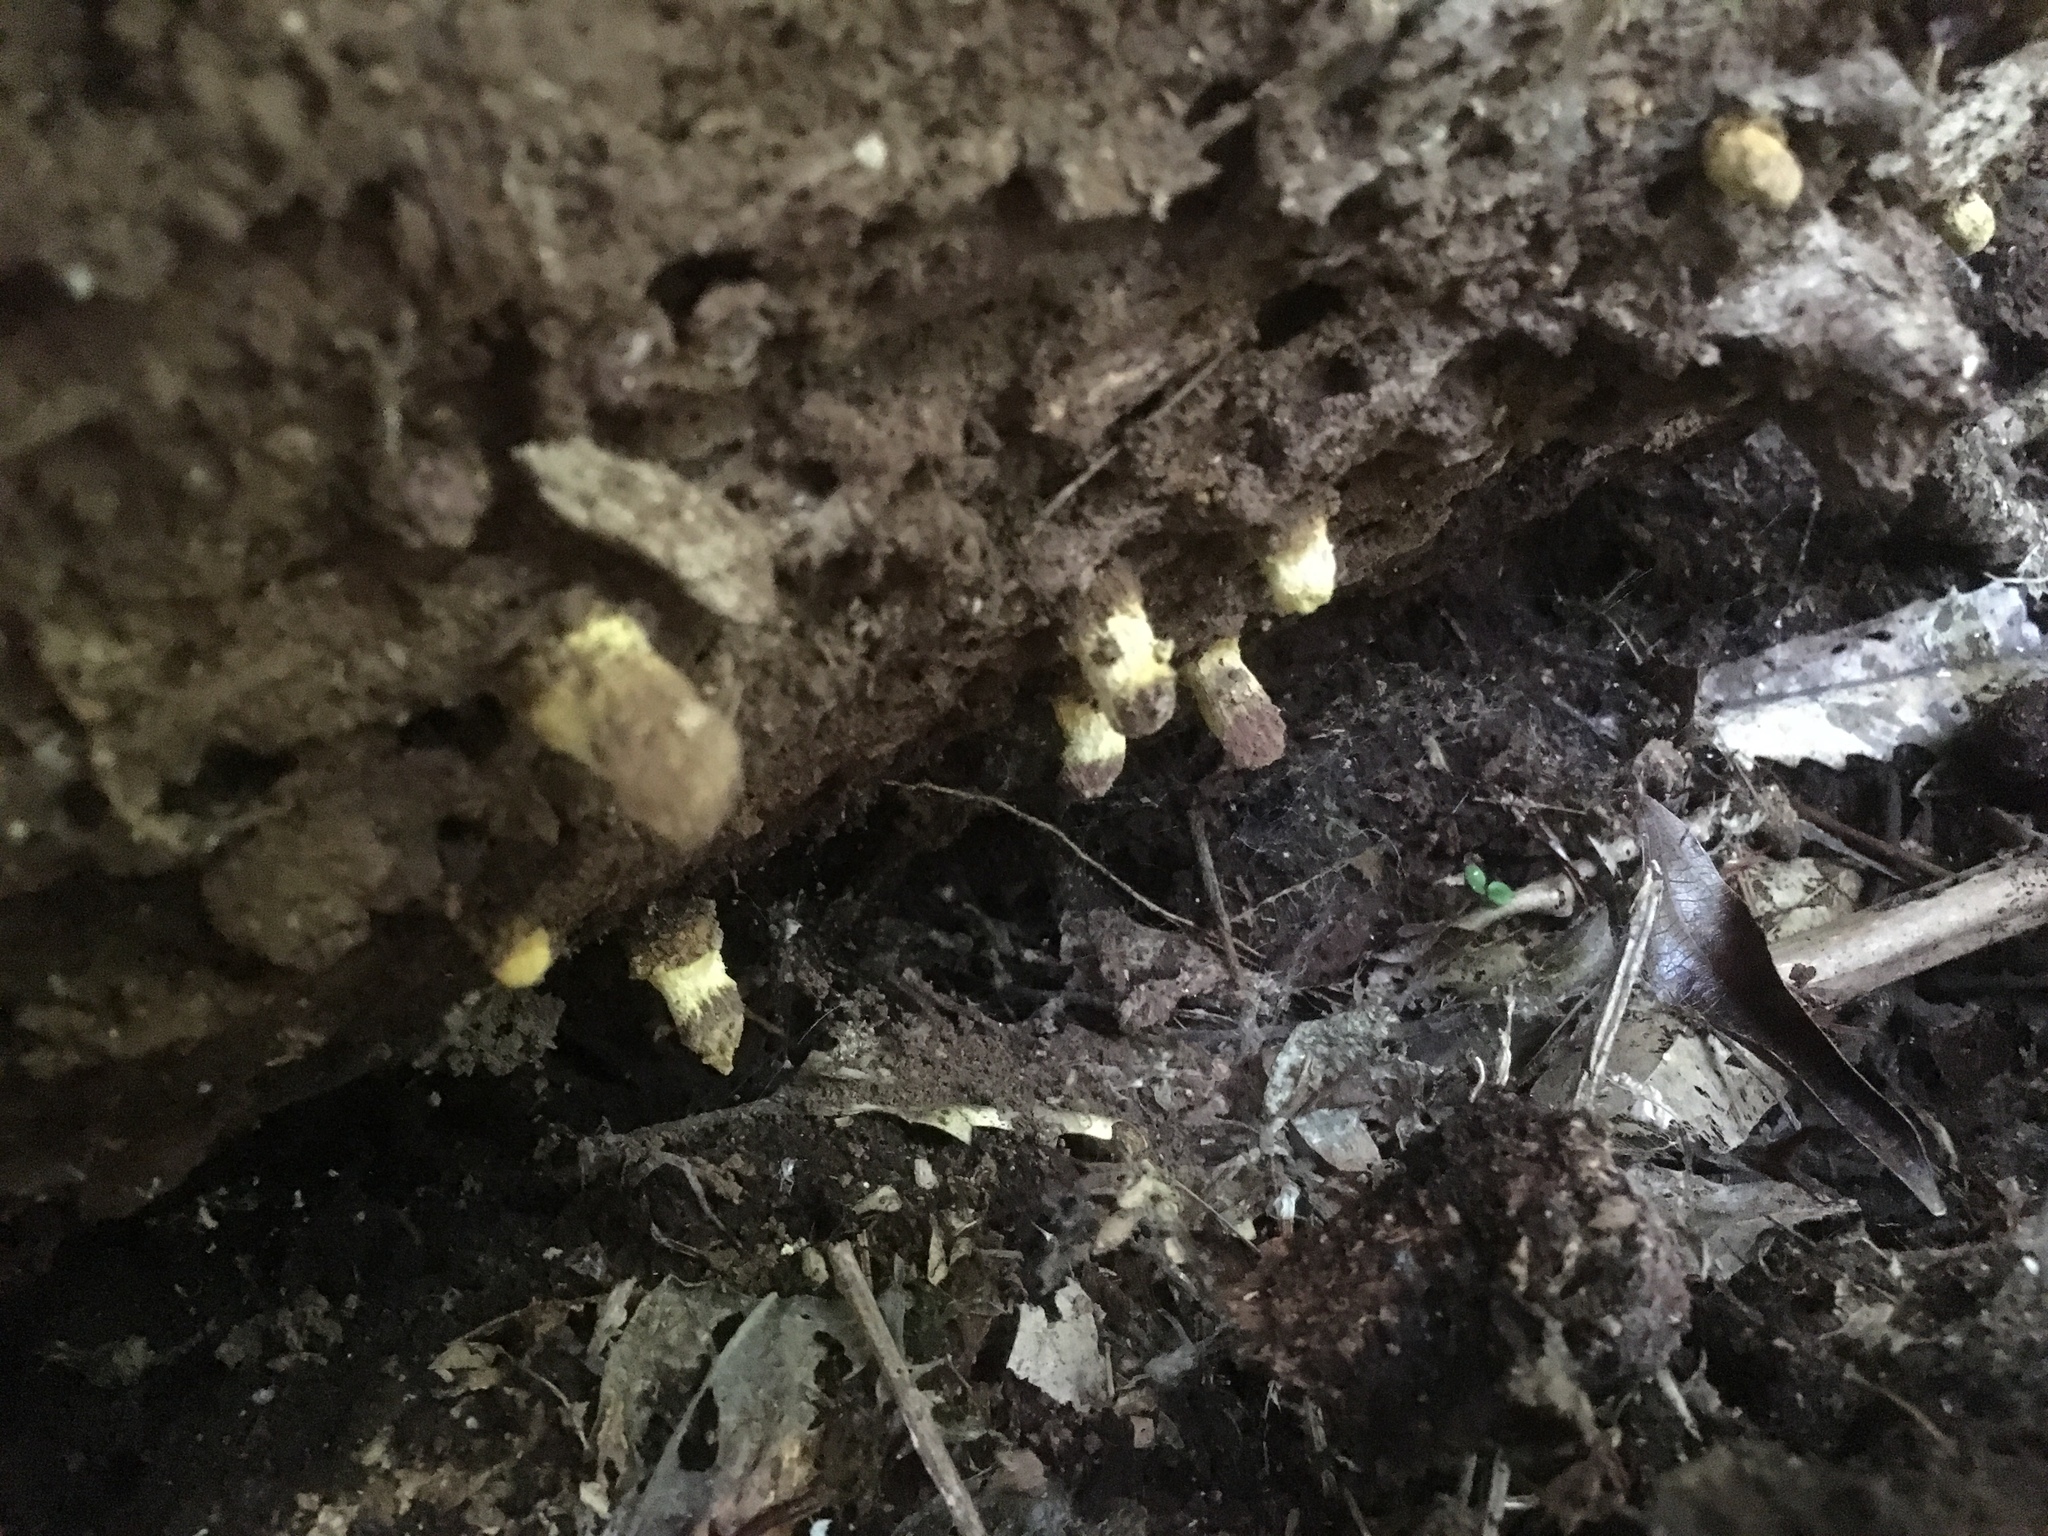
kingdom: Fungi
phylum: Ascomycota
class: Eurotiomycetes
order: Eurotiales
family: Trichocomaceae
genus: Trichocoma
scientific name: Trichocoma paradoxa
